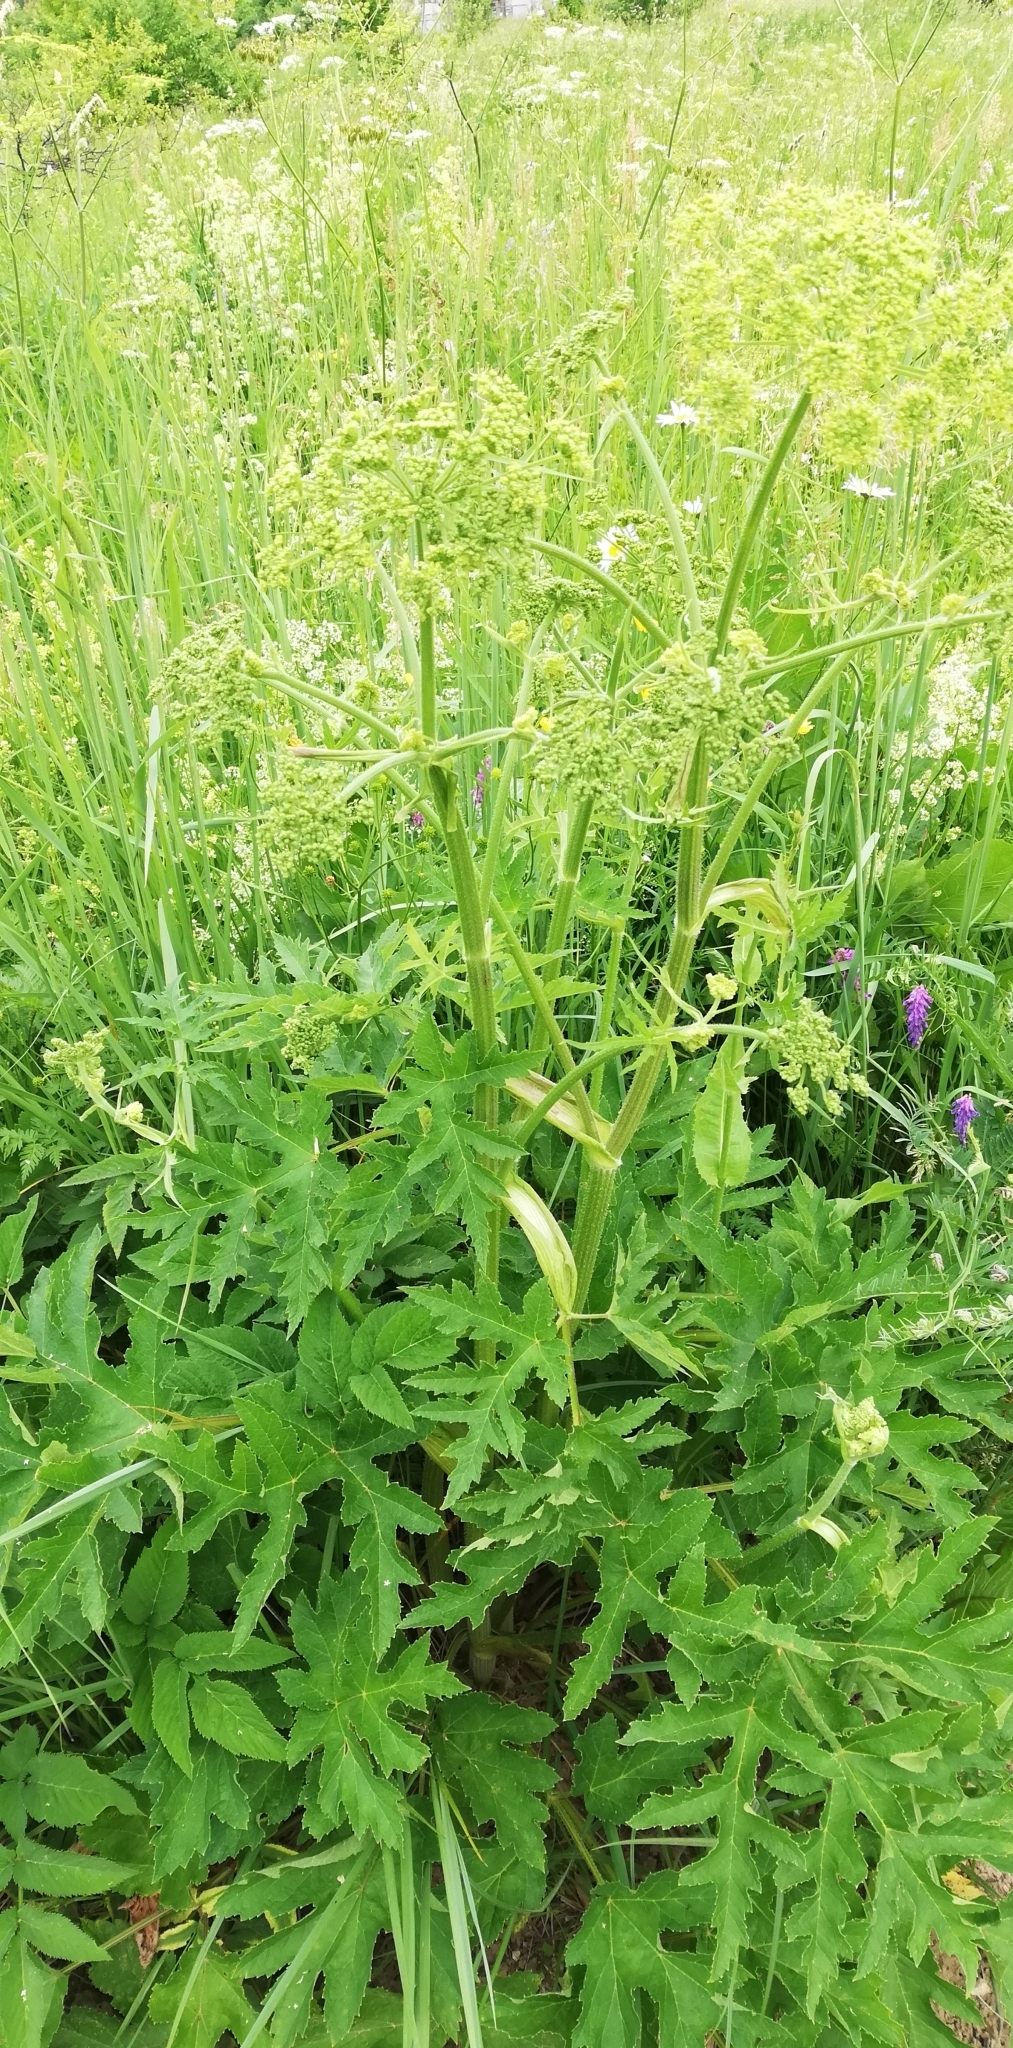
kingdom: Plantae
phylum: Tracheophyta
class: Magnoliopsida
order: Apiales
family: Apiaceae
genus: Heracleum
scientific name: Heracleum sphondylium
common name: Hogweed
